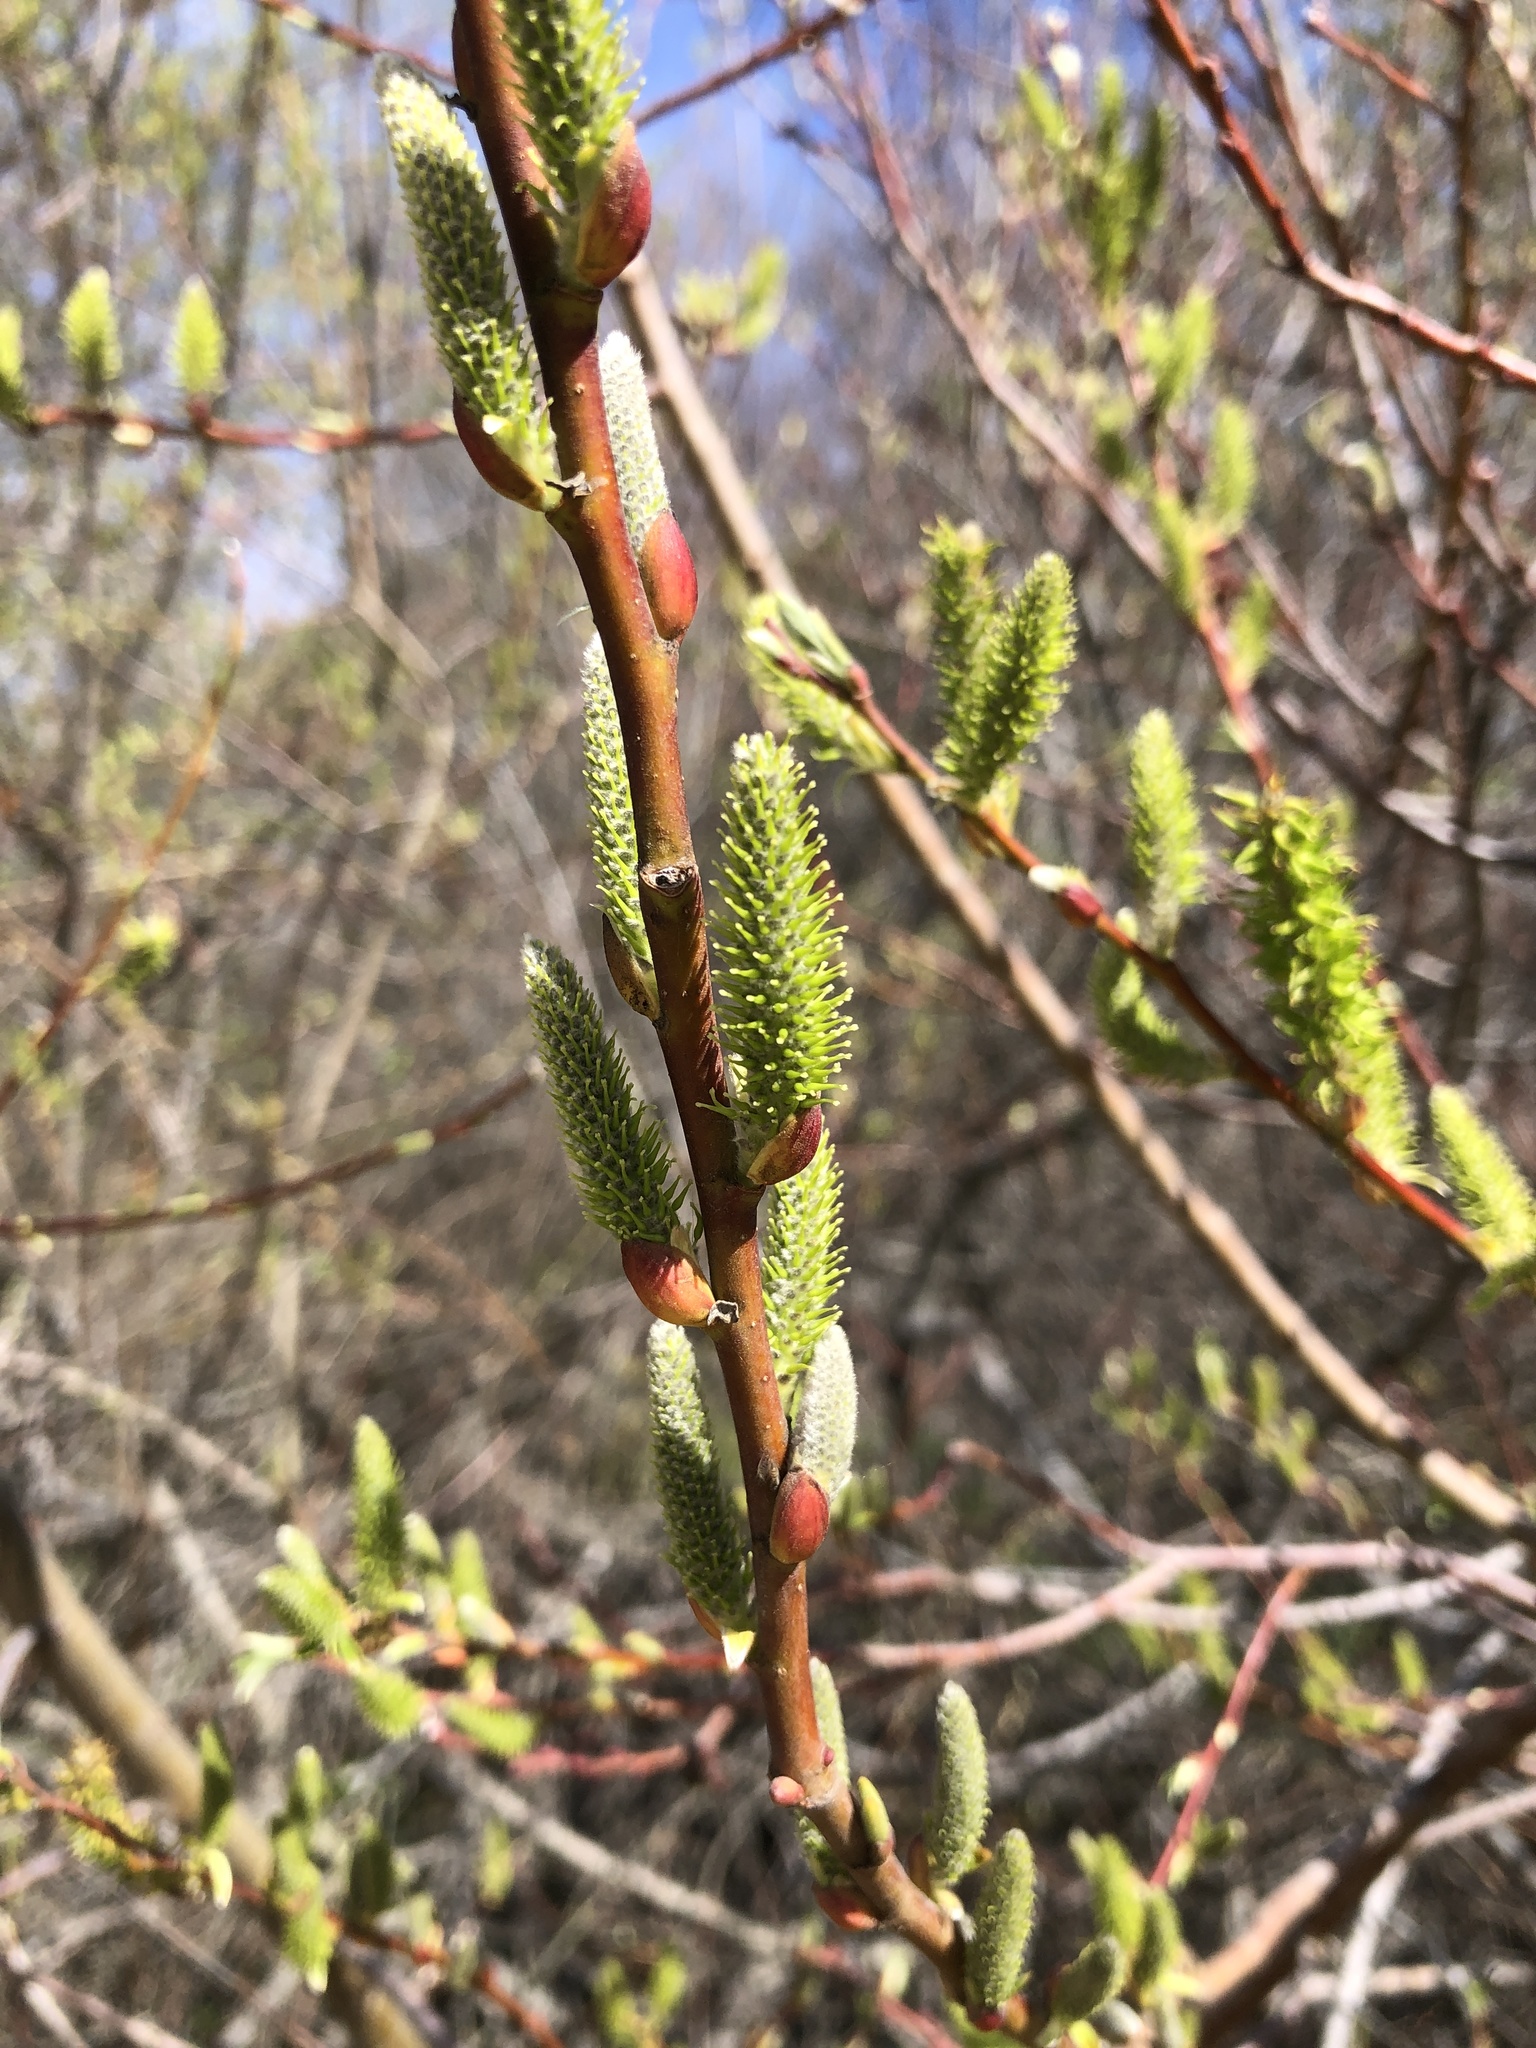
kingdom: Plantae
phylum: Tracheophyta
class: Magnoliopsida
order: Malpighiales
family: Salicaceae
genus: Salix
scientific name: Salix lasiolepis
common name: Arroyo willow
